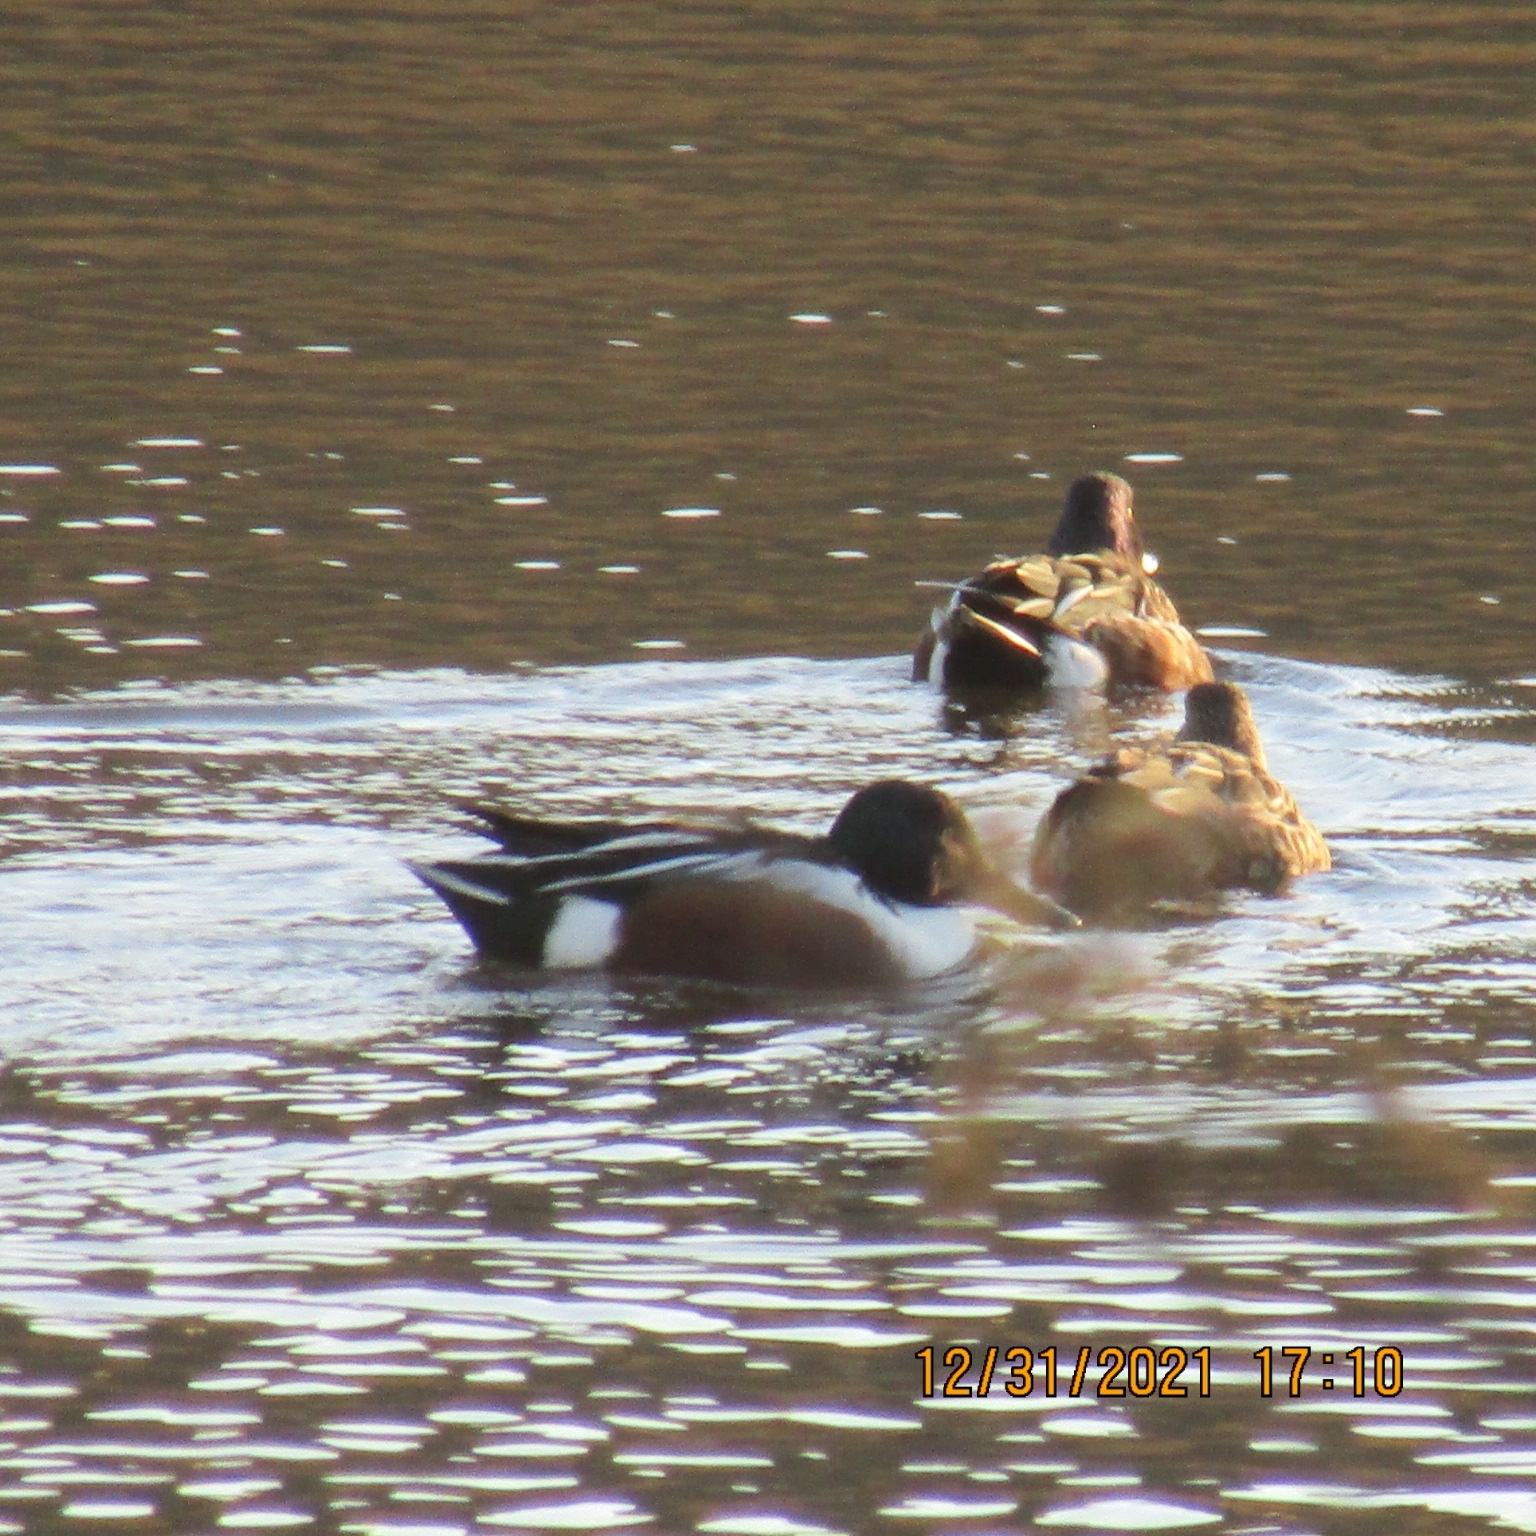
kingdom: Animalia
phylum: Chordata
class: Aves
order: Anseriformes
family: Anatidae
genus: Spatula
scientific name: Spatula clypeata
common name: Northern shoveler
